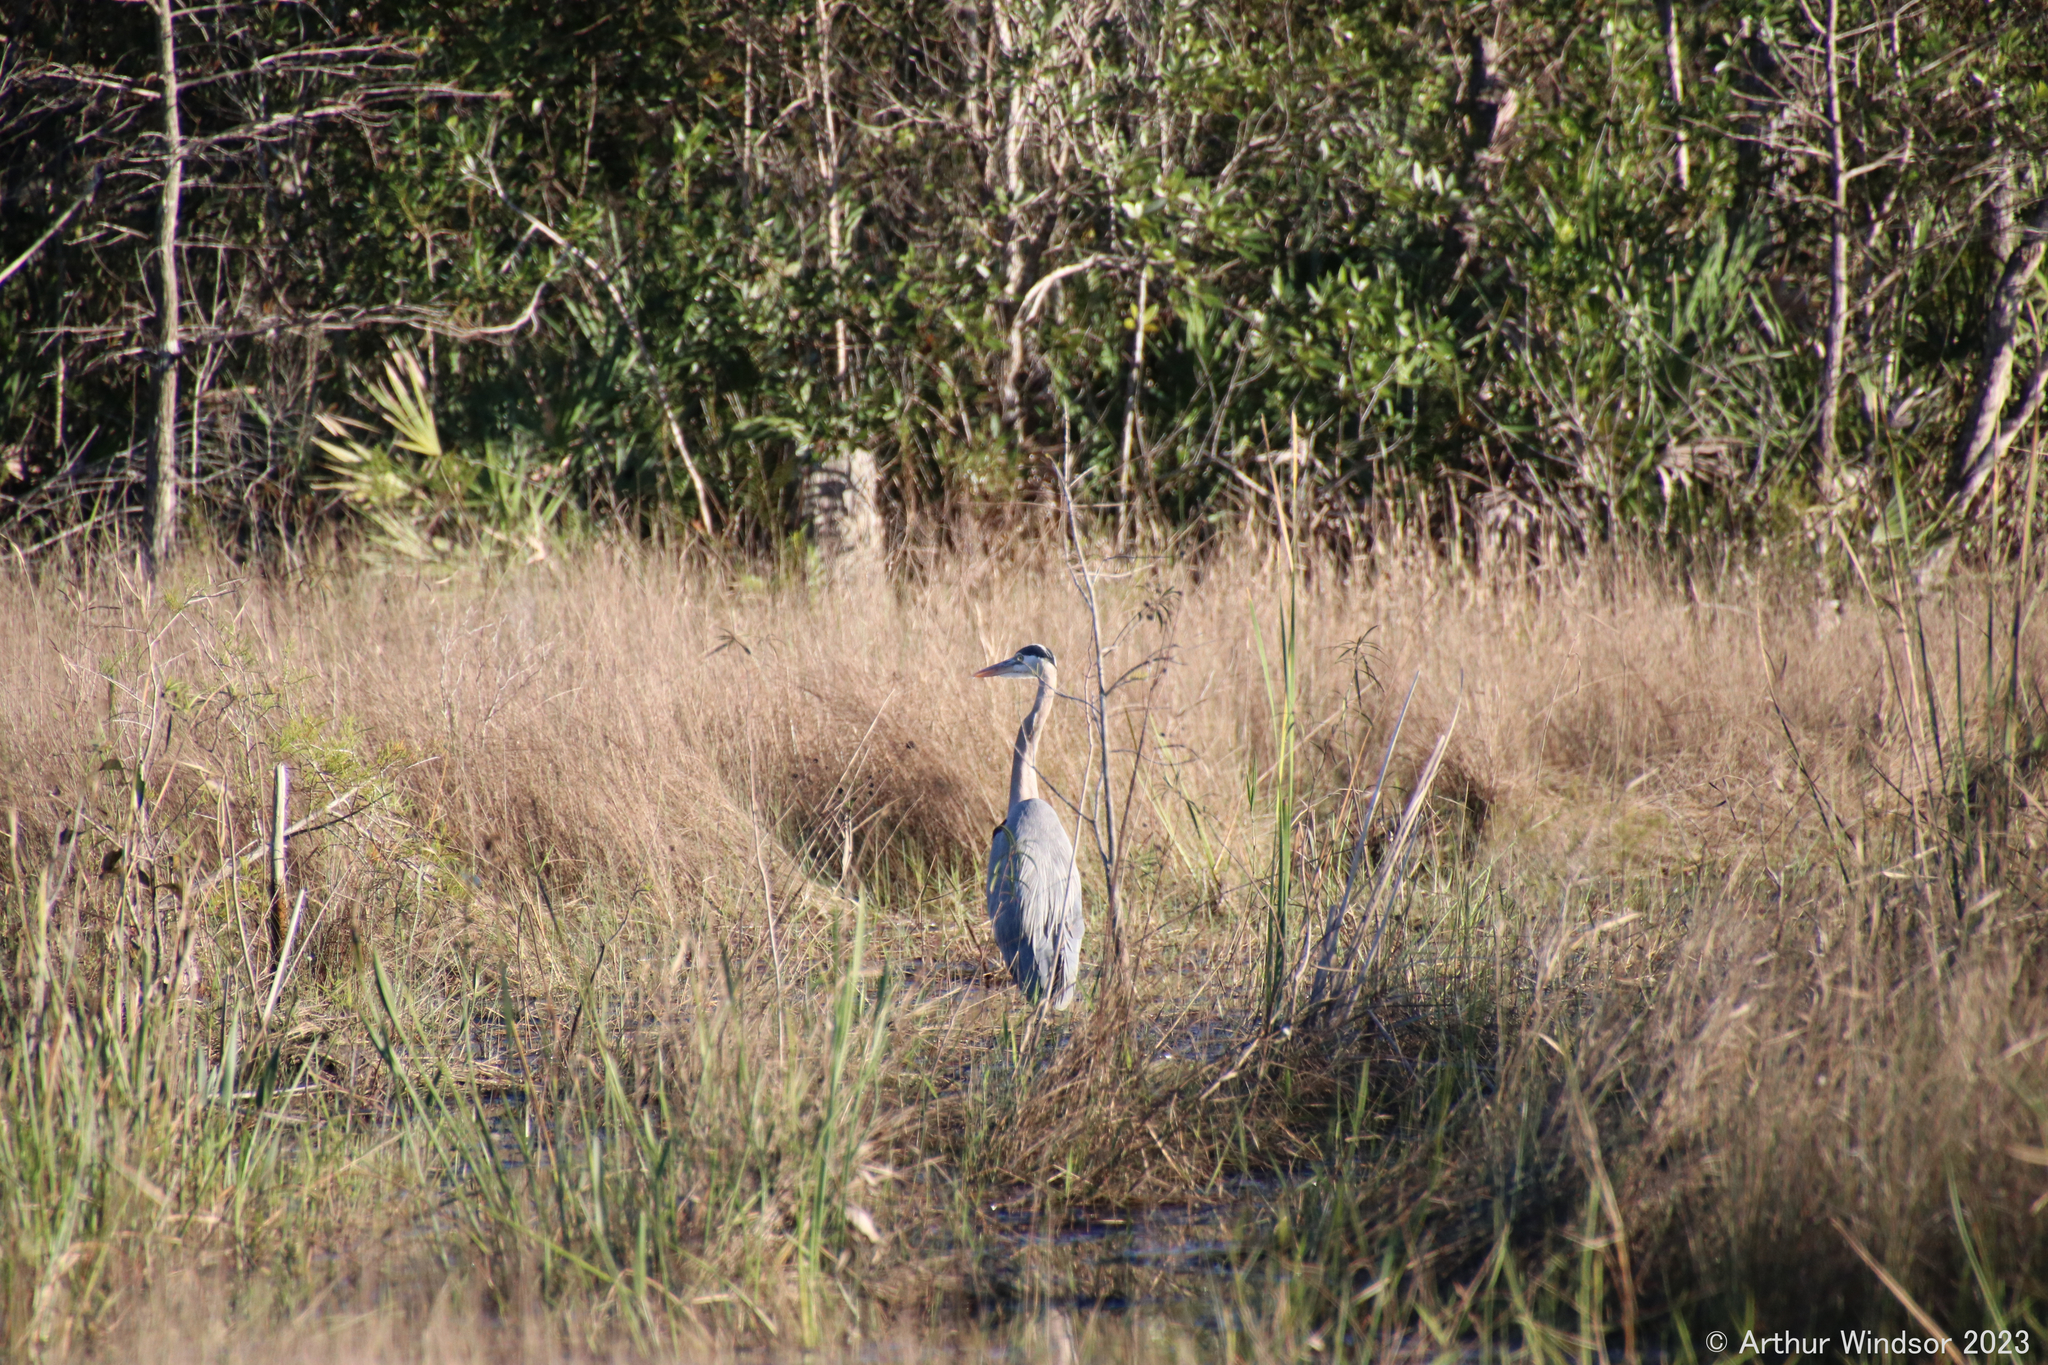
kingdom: Animalia
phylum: Chordata
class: Aves
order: Pelecaniformes
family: Ardeidae
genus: Ardea
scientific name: Ardea herodias
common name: Great blue heron
